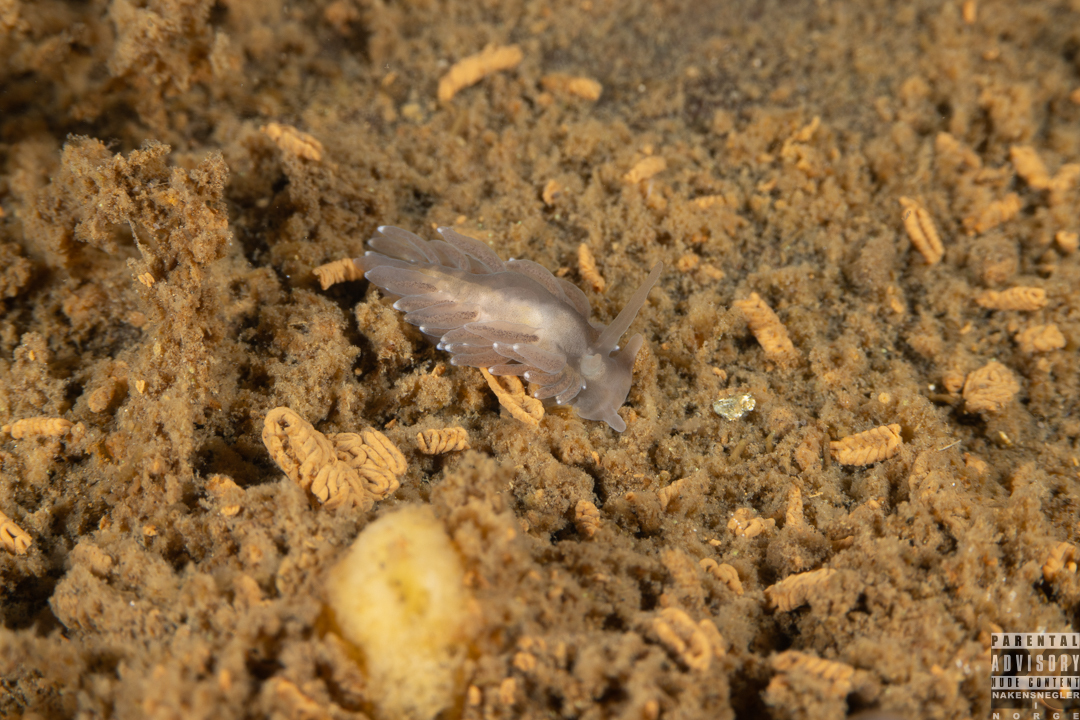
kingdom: Animalia
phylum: Mollusca
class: Gastropoda
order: Nudibranchia
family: Cuthonidae
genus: Bohuslania
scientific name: Bohuslania matsmichaeli
